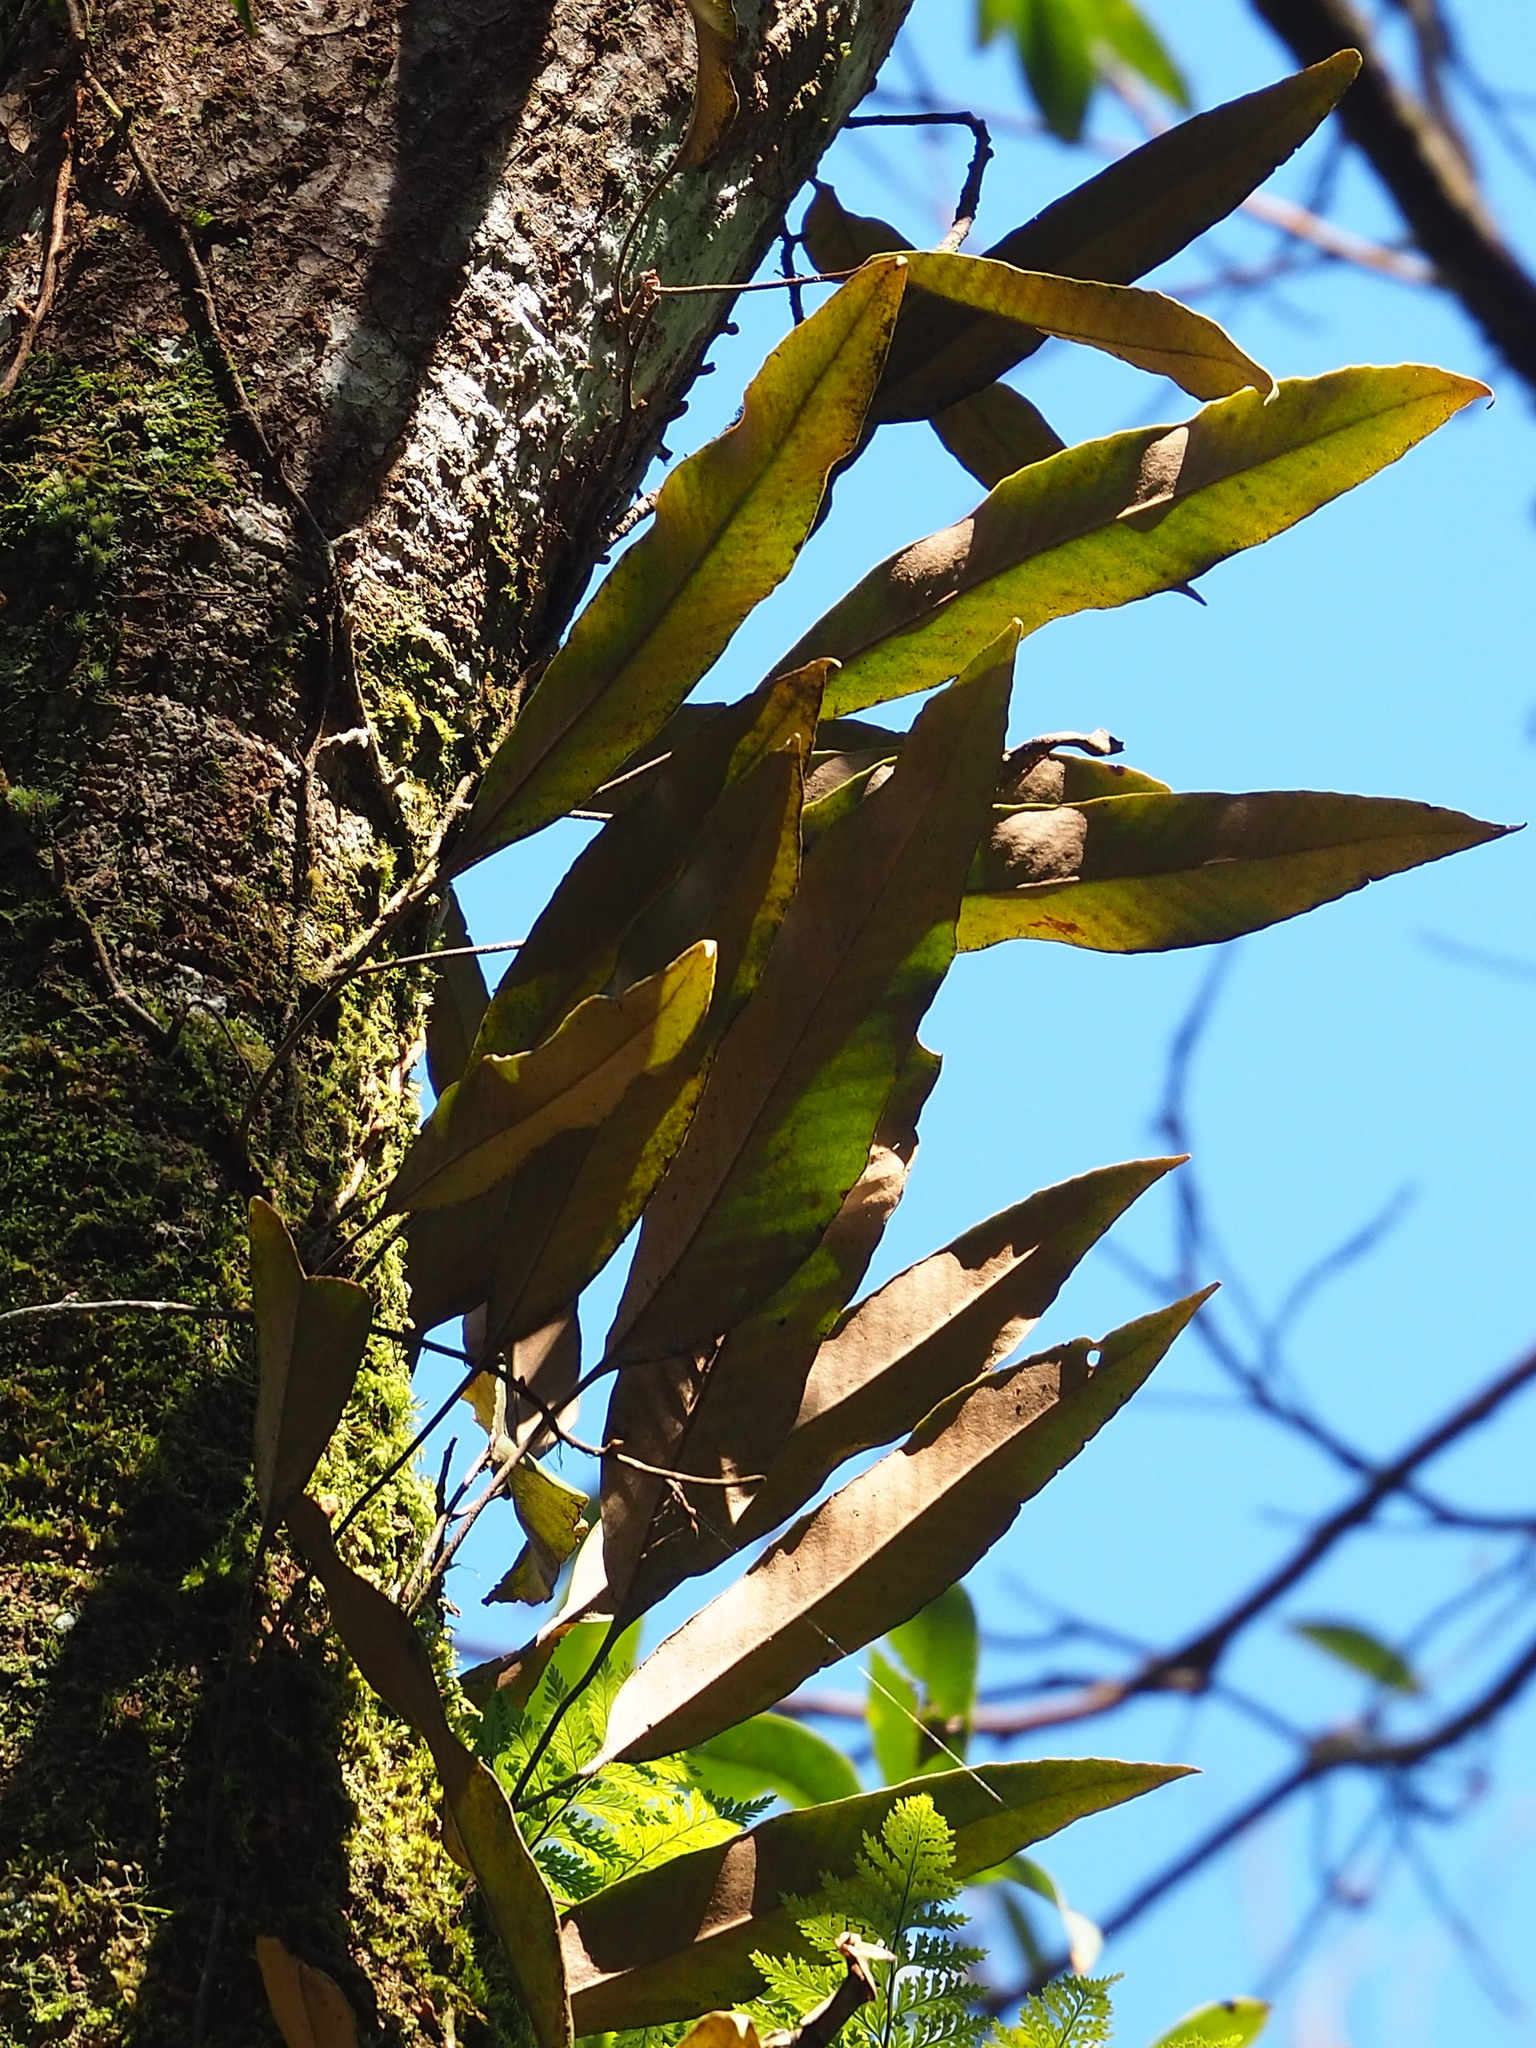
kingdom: Plantae
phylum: Tracheophyta
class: Polypodiopsida
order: Polypodiales
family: Polypodiaceae
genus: Pyrrosia
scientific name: Pyrrosia lingua
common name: Felt fern
